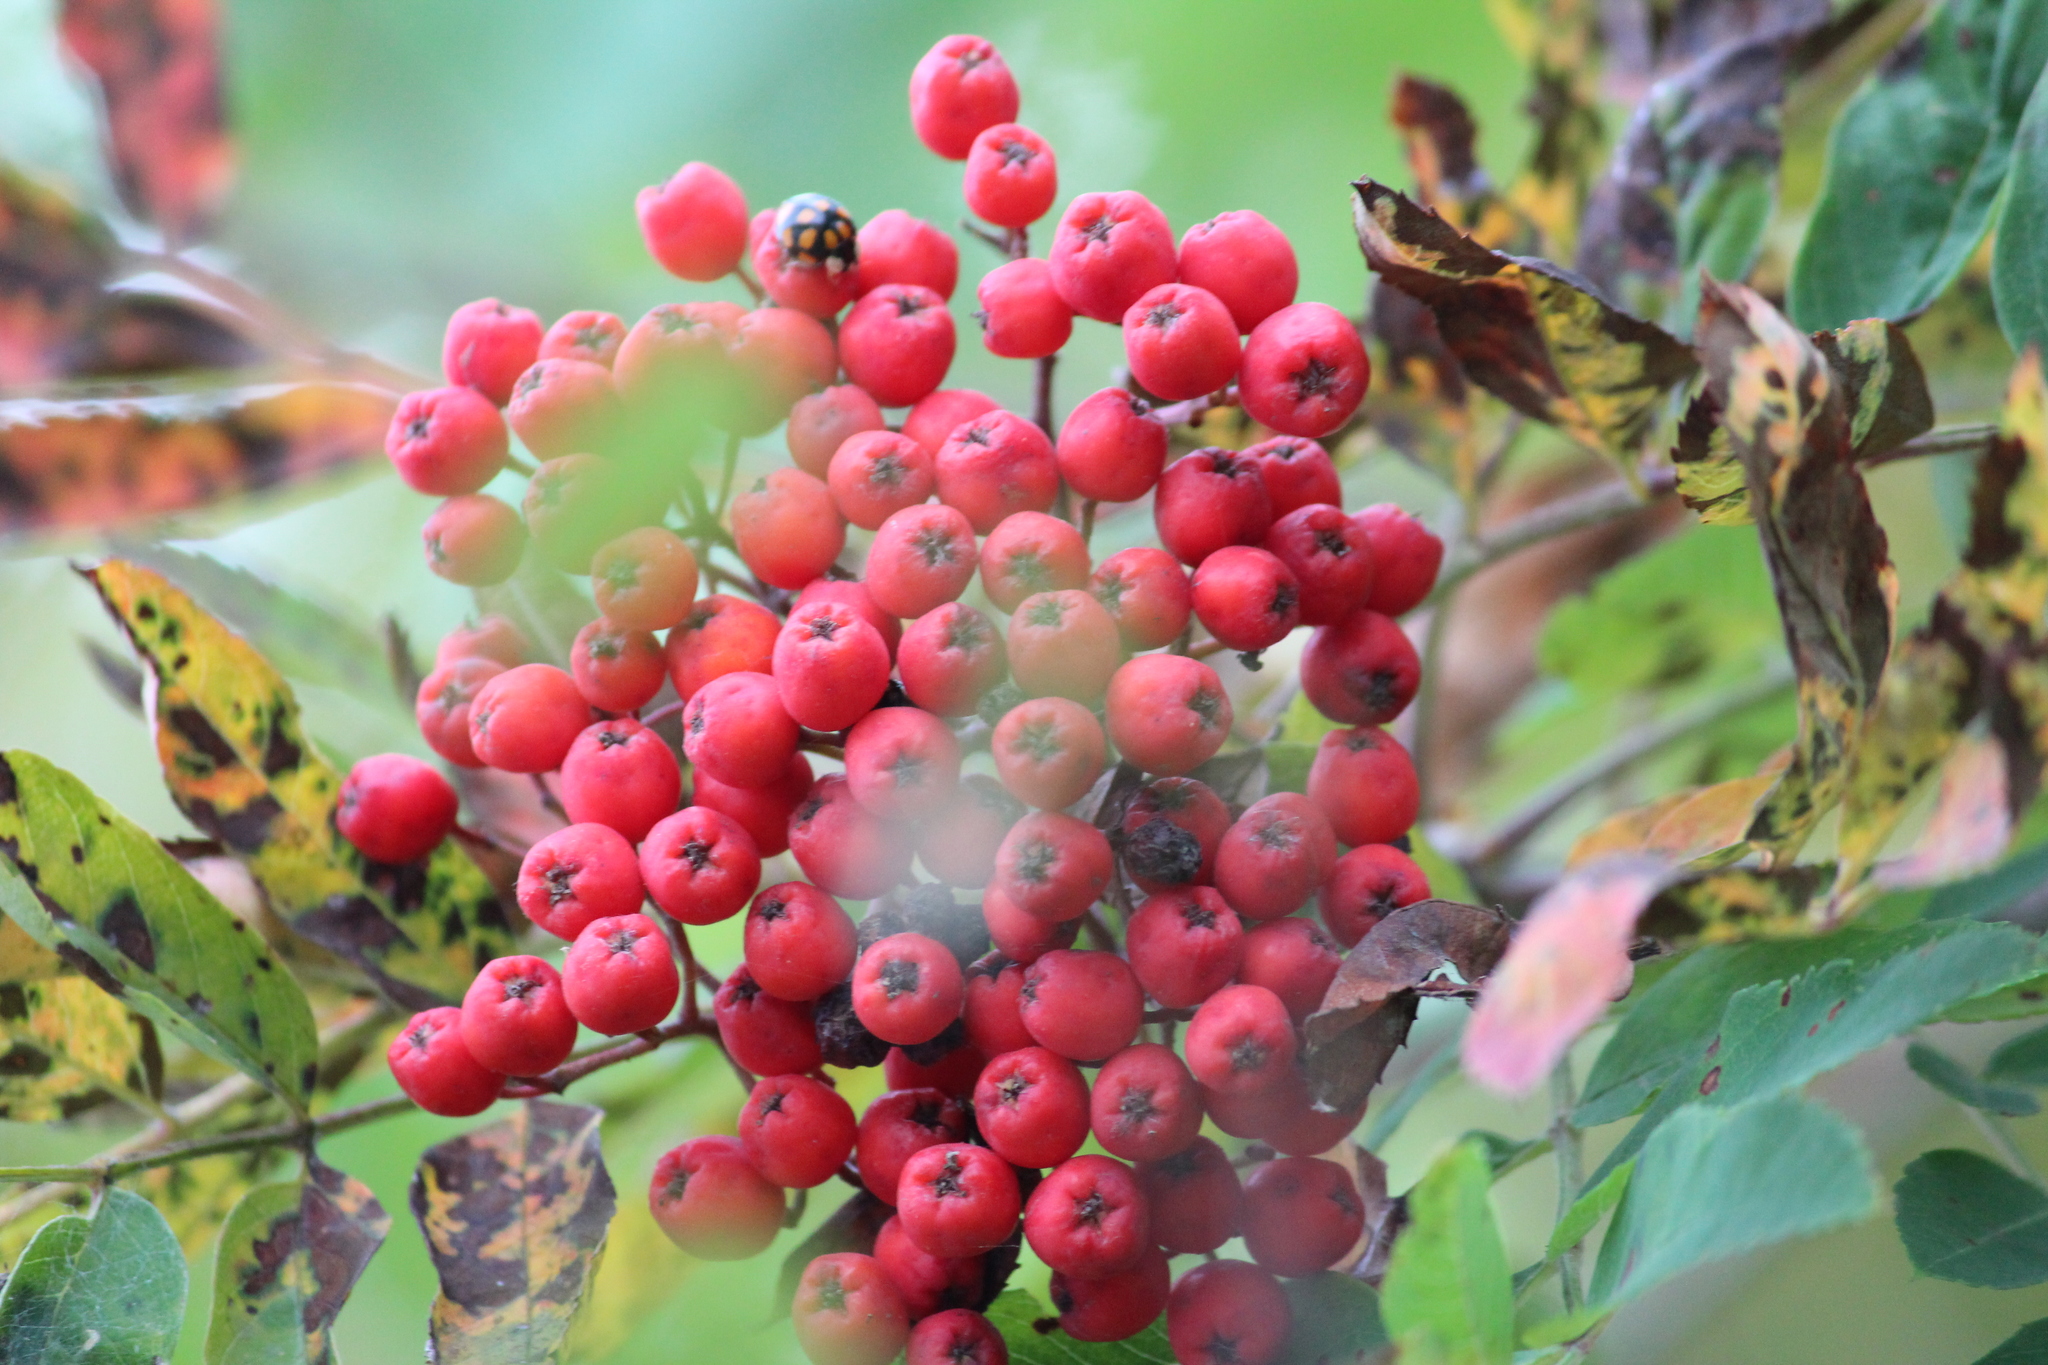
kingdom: Plantae
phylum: Tracheophyta
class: Magnoliopsida
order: Rosales
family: Rosaceae
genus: Sorbus
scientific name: Sorbus aucuparia
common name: Rowan
